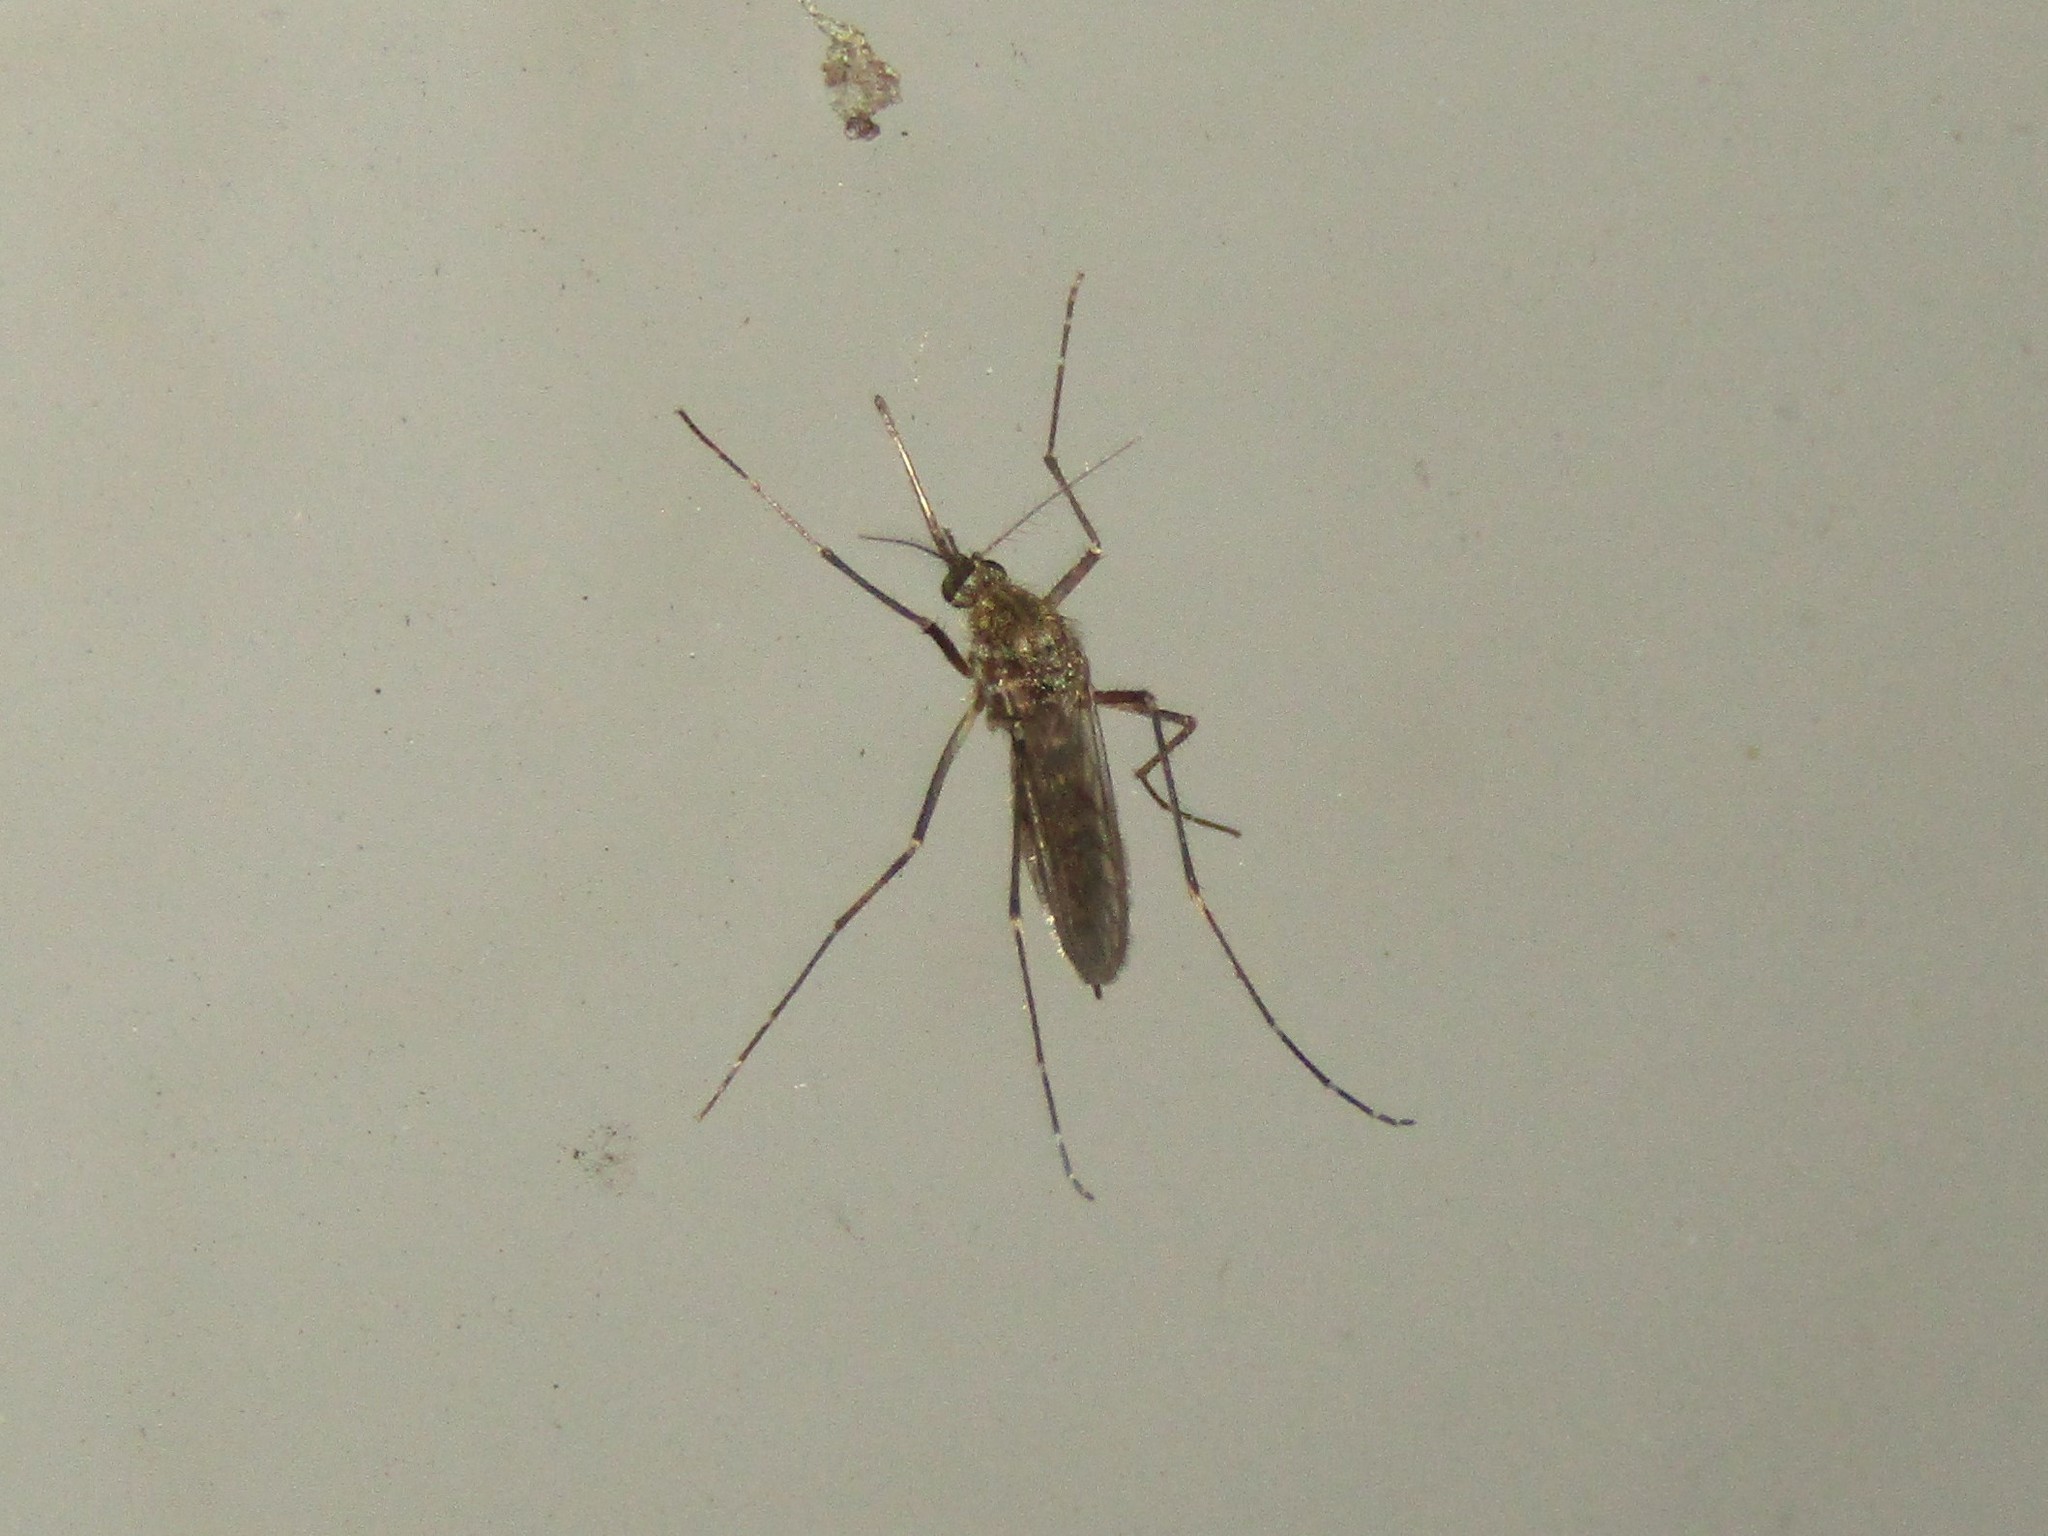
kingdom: Animalia
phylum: Arthropoda
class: Insecta
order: Diptera
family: Culicidae
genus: Aedes
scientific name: Aedes vexans
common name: Inland floodwater mosquito
